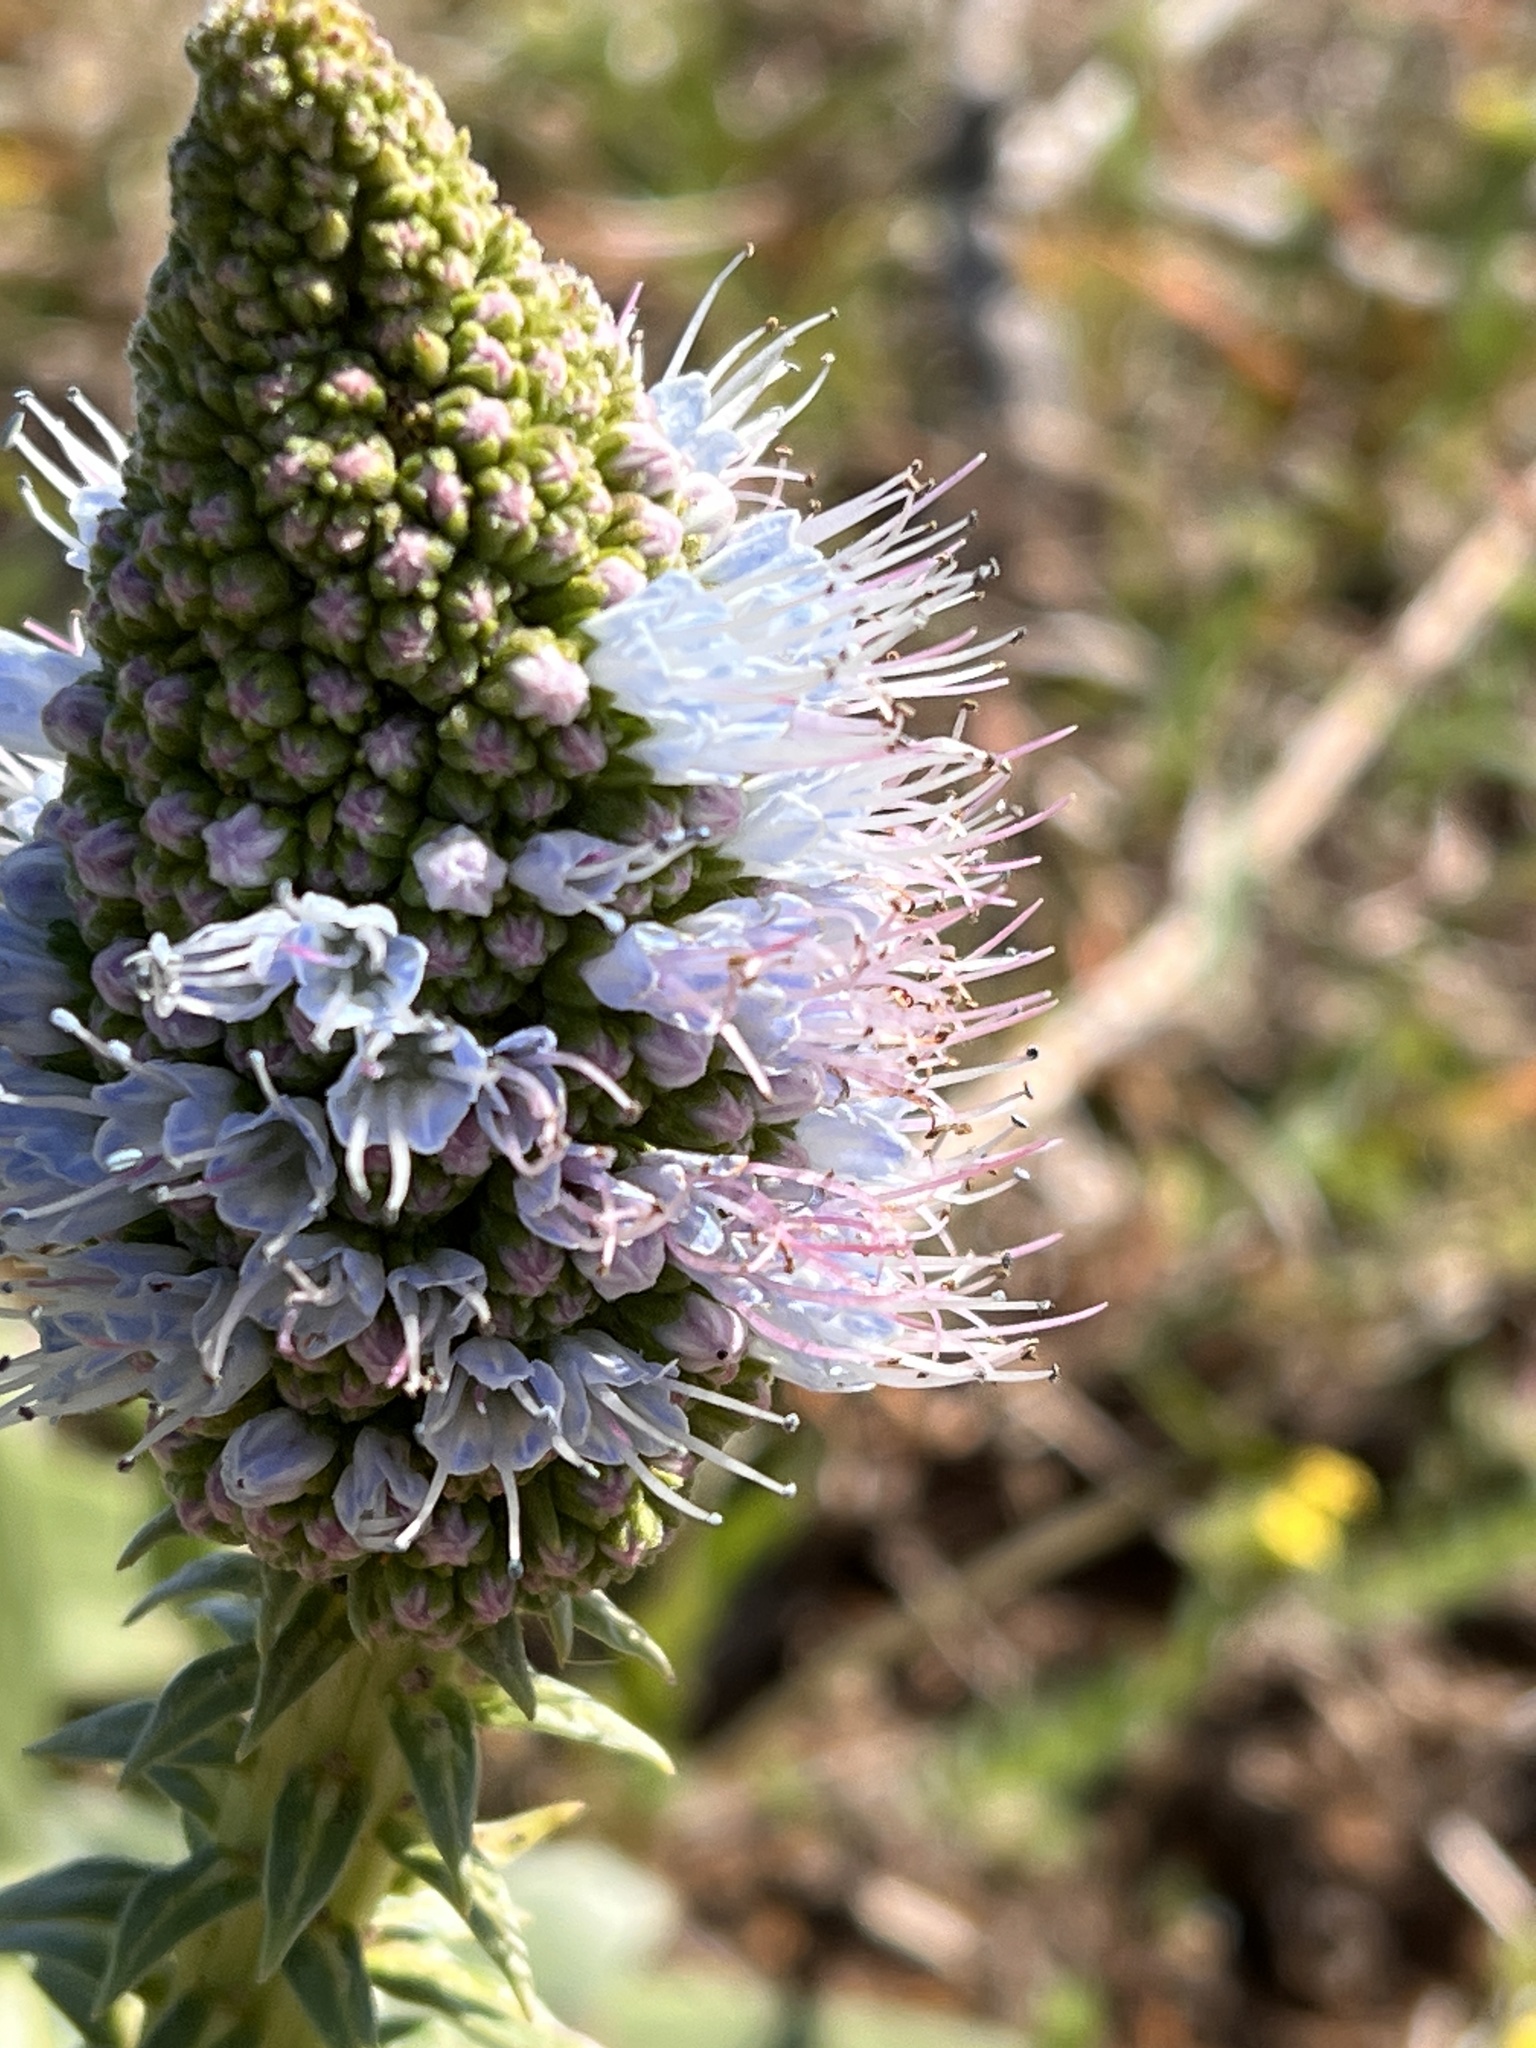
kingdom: Plantae
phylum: Tracheophyta
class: Magnoliopsida
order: Boraginales
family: Boraginaceae
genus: Echium
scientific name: Echium nervosum
